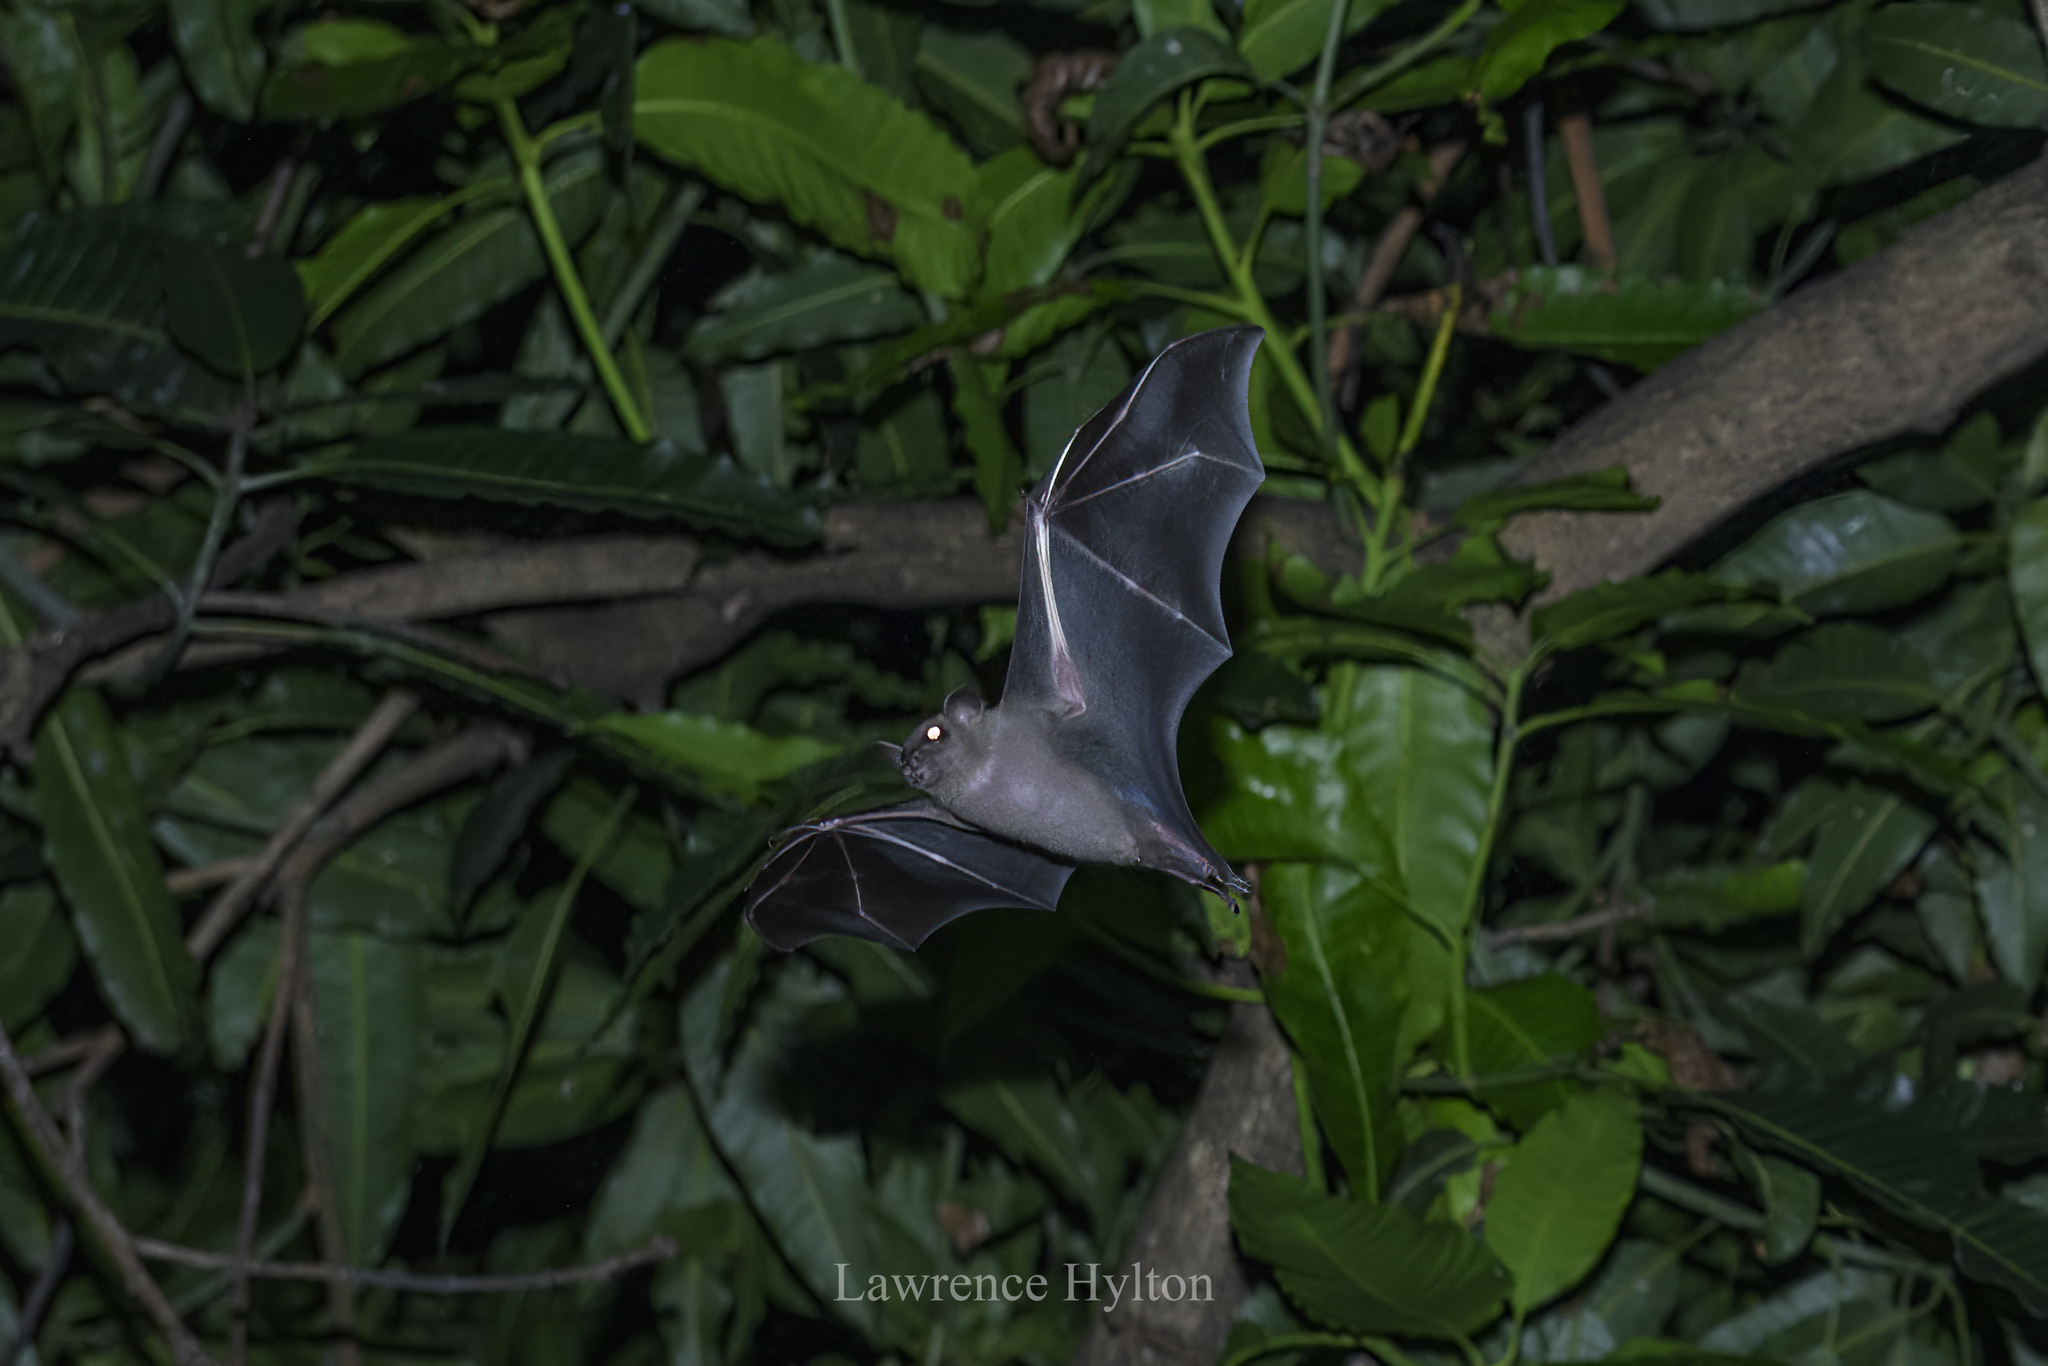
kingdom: Animalia
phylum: Chordata
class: Mammalia
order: Chiroptera
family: Pteropodidae
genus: Cynopterus
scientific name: Cynopterus sphinx
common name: Greater short-nosed fruit bat
